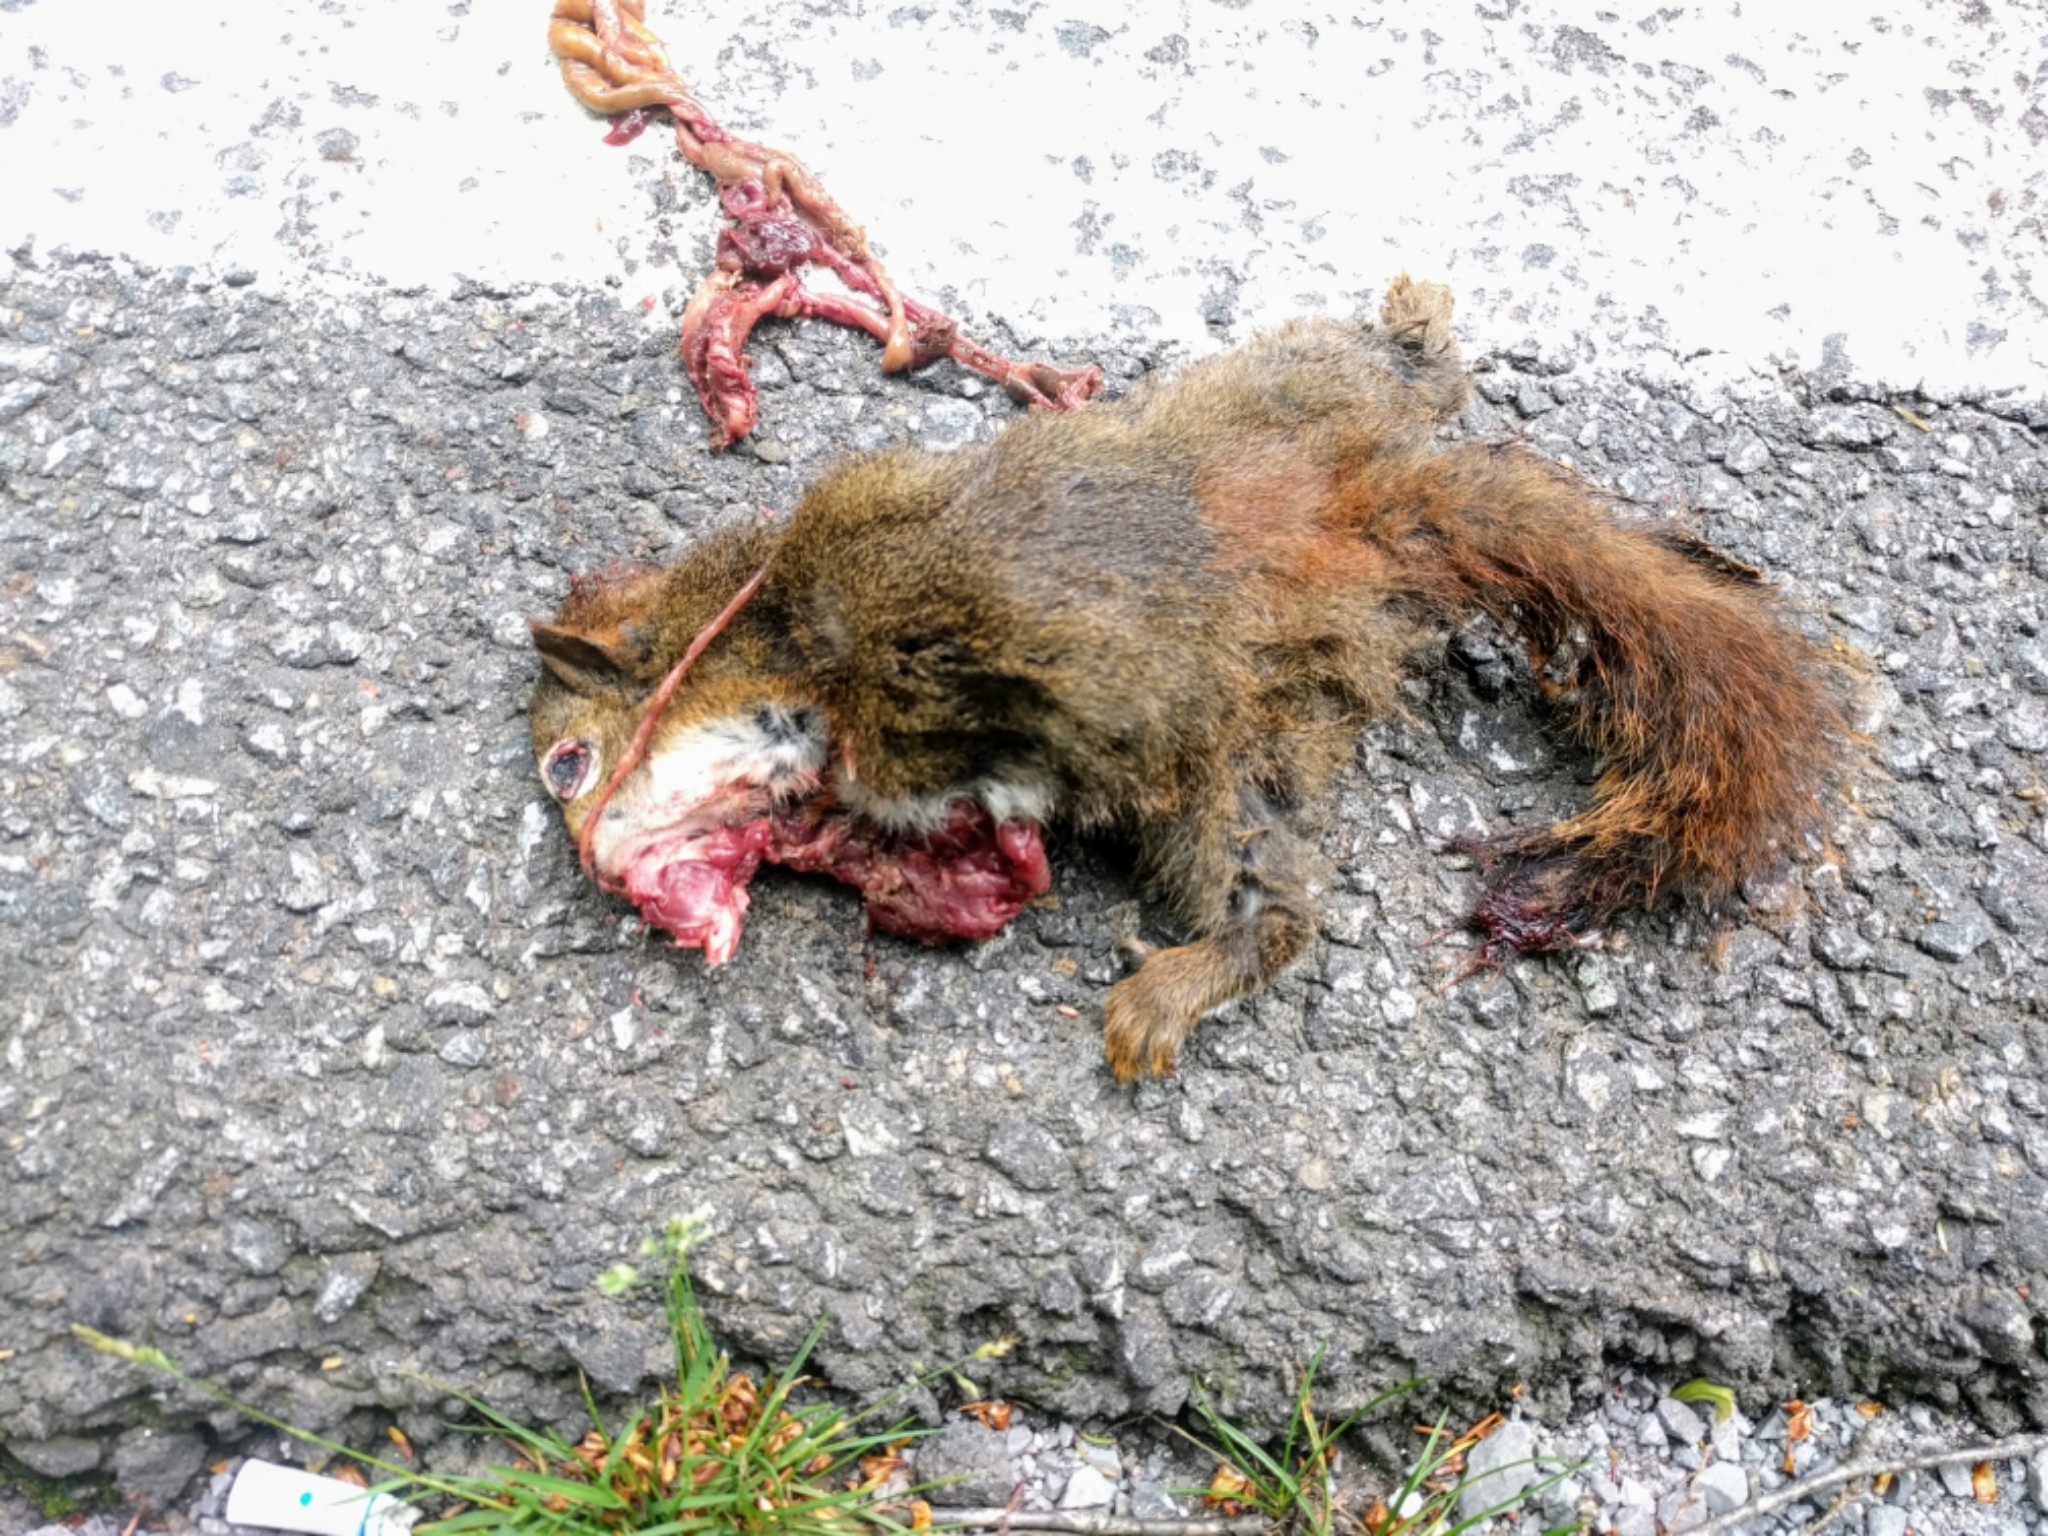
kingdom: Animalia
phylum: Chordata
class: Mammalia
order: Rodentia
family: Sciuridae
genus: Tamiasciurus
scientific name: Tamiasciurus hudsonicus
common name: Red squirrel
